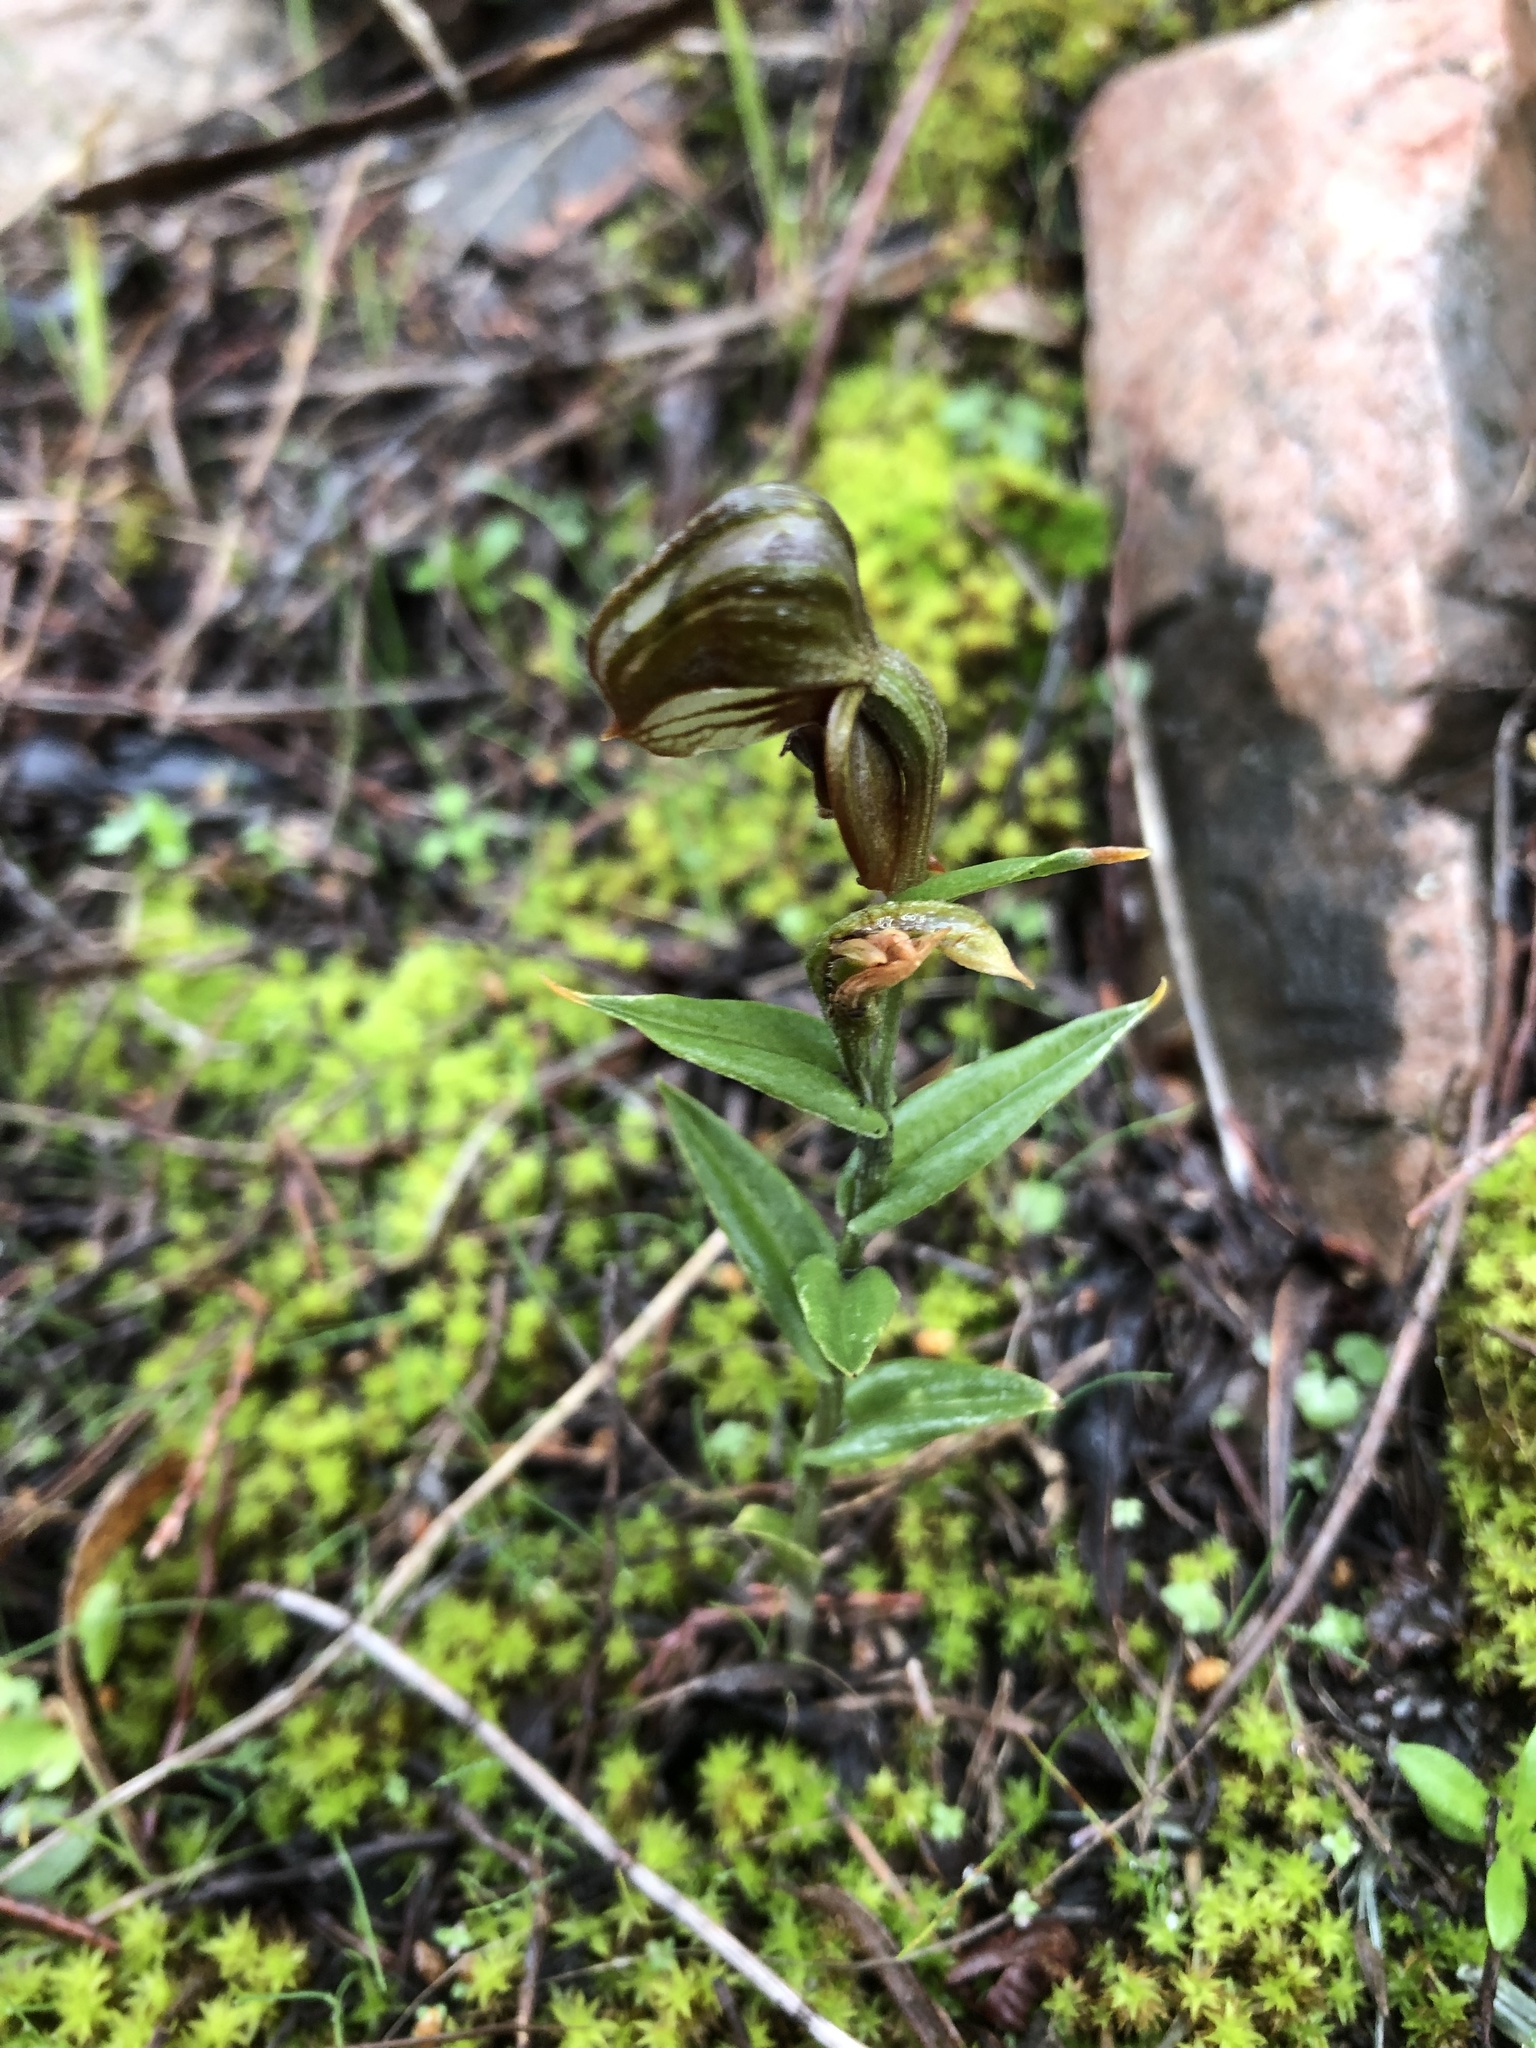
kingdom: Plantae
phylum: Tracheophyta
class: Liliopsida
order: Asparagales
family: Orchidaceae
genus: Pterostylis
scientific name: Pterostylis sanguinea
